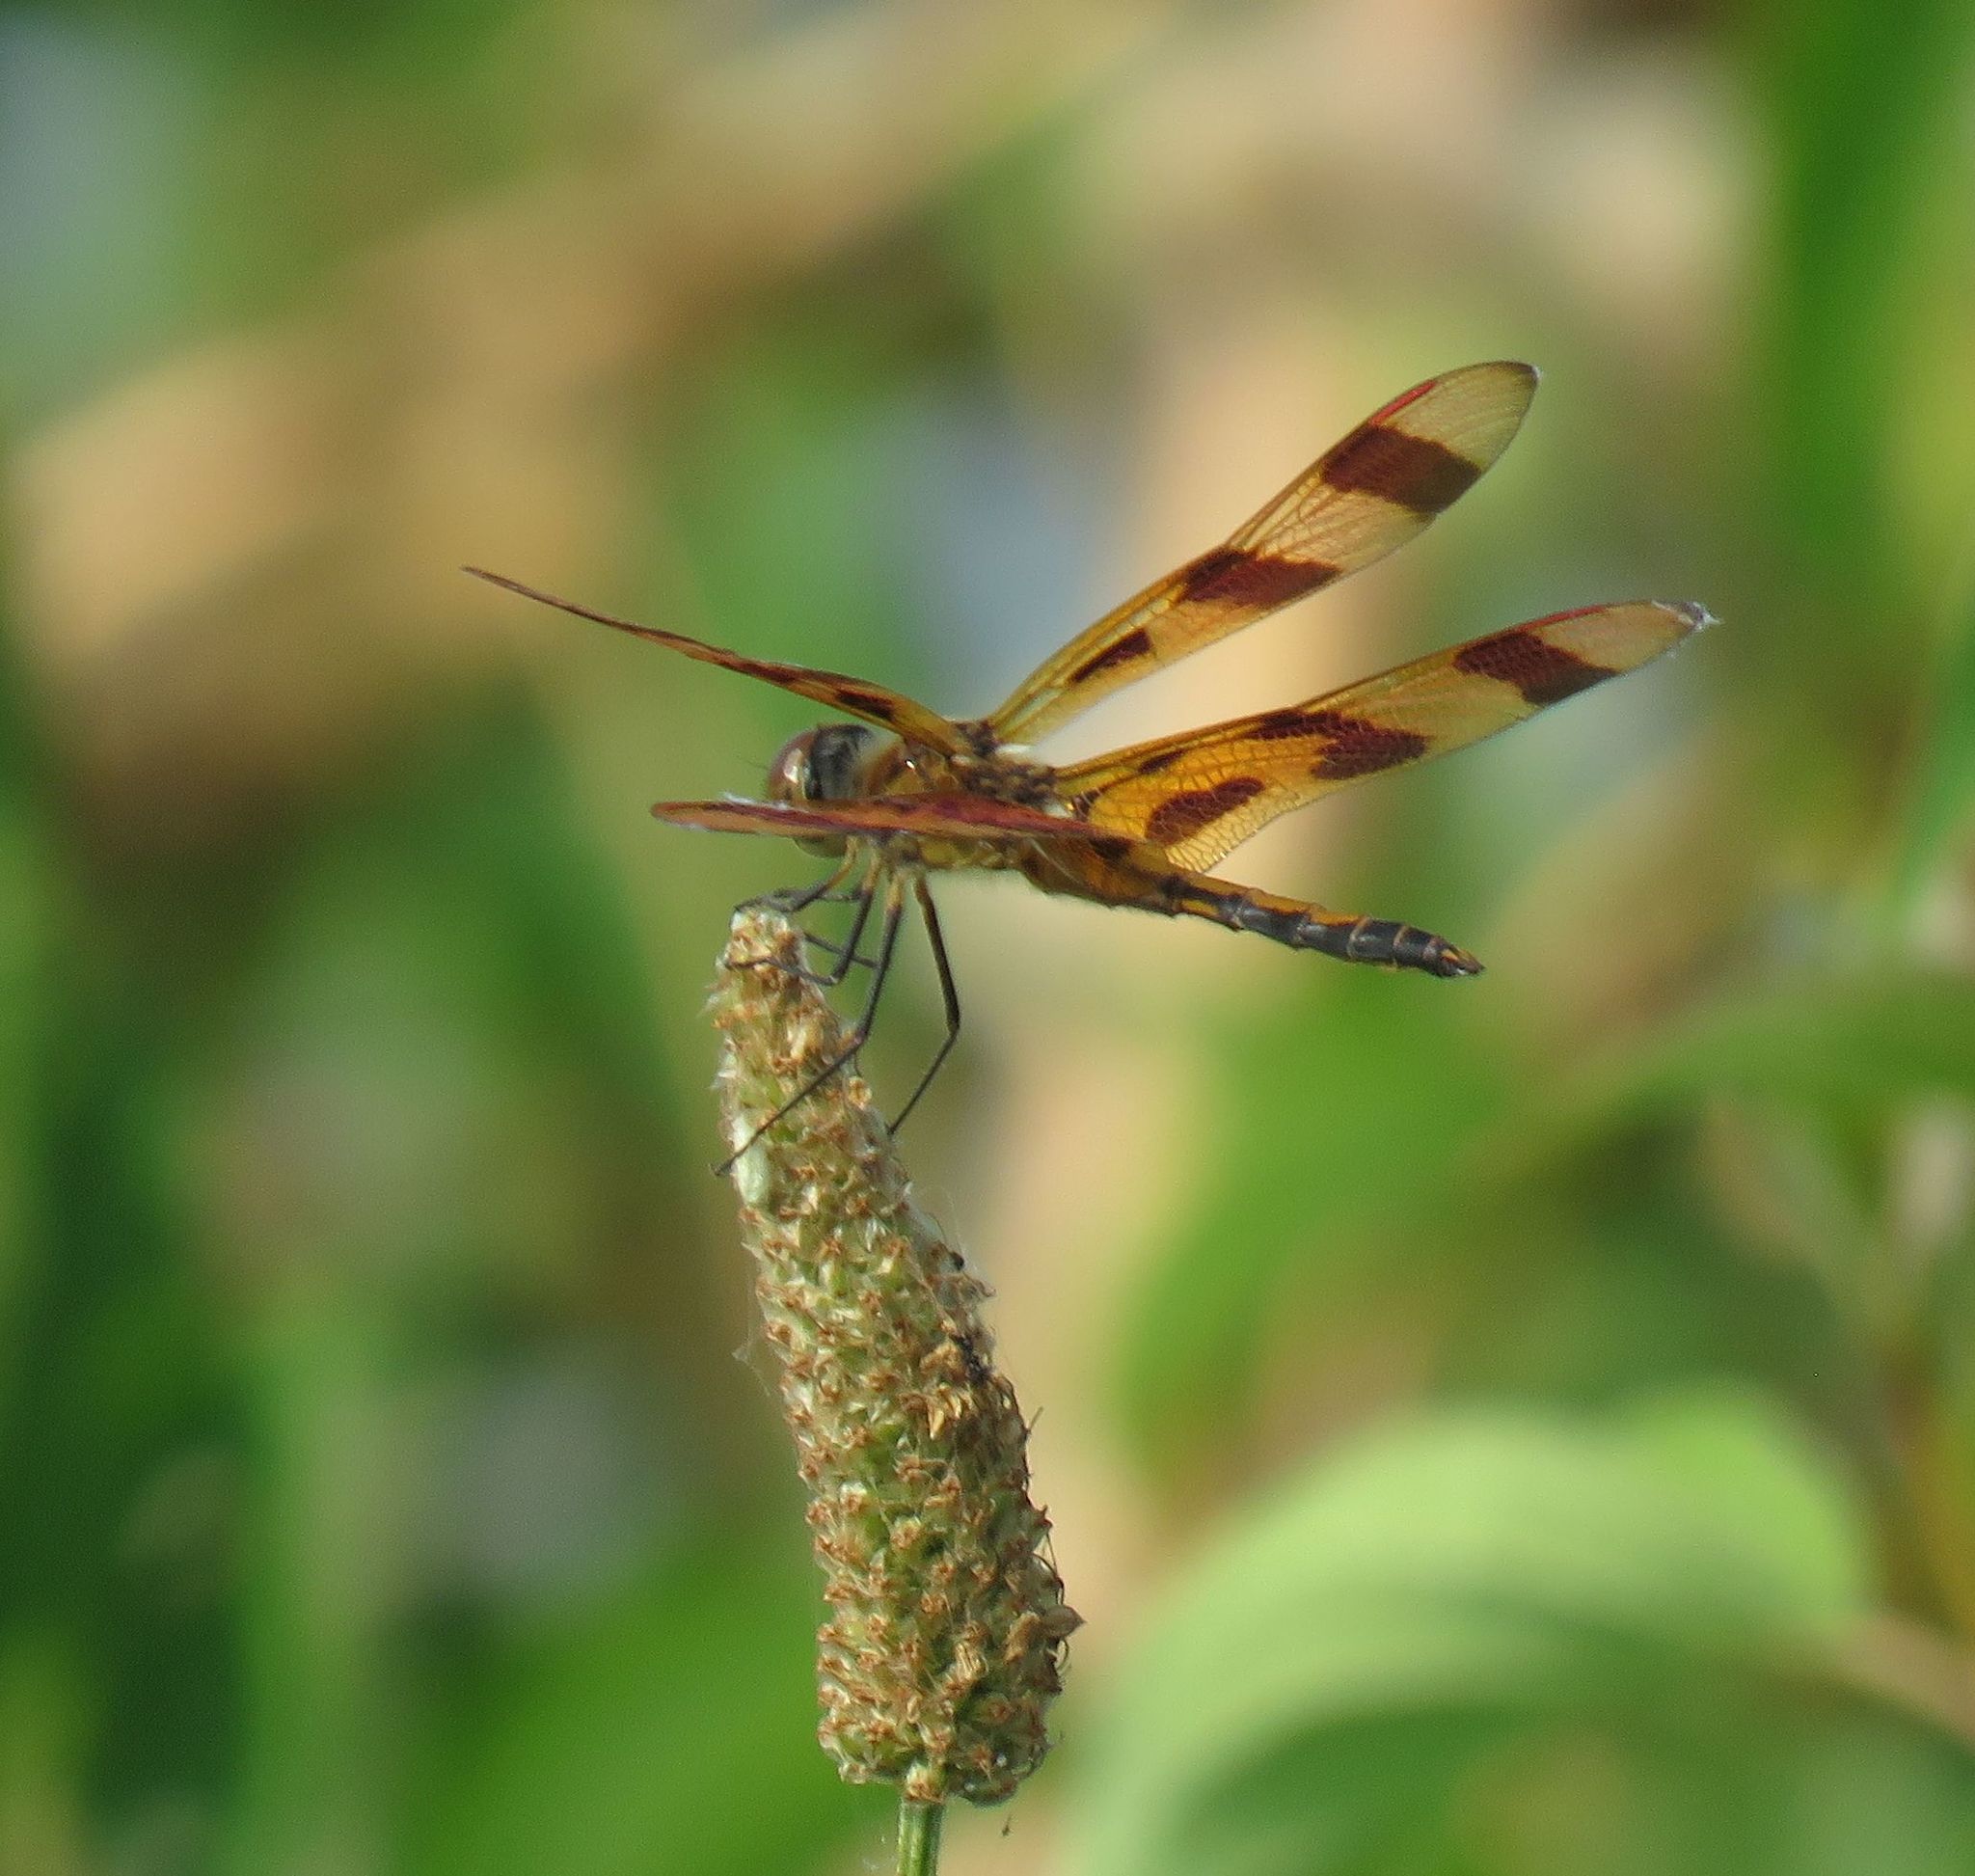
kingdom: Animalia
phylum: Arthropoda
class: Insecta
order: Odonata
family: Libellulidae
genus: Celithemis
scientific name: Celithemis eponina
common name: Halloween pennant
